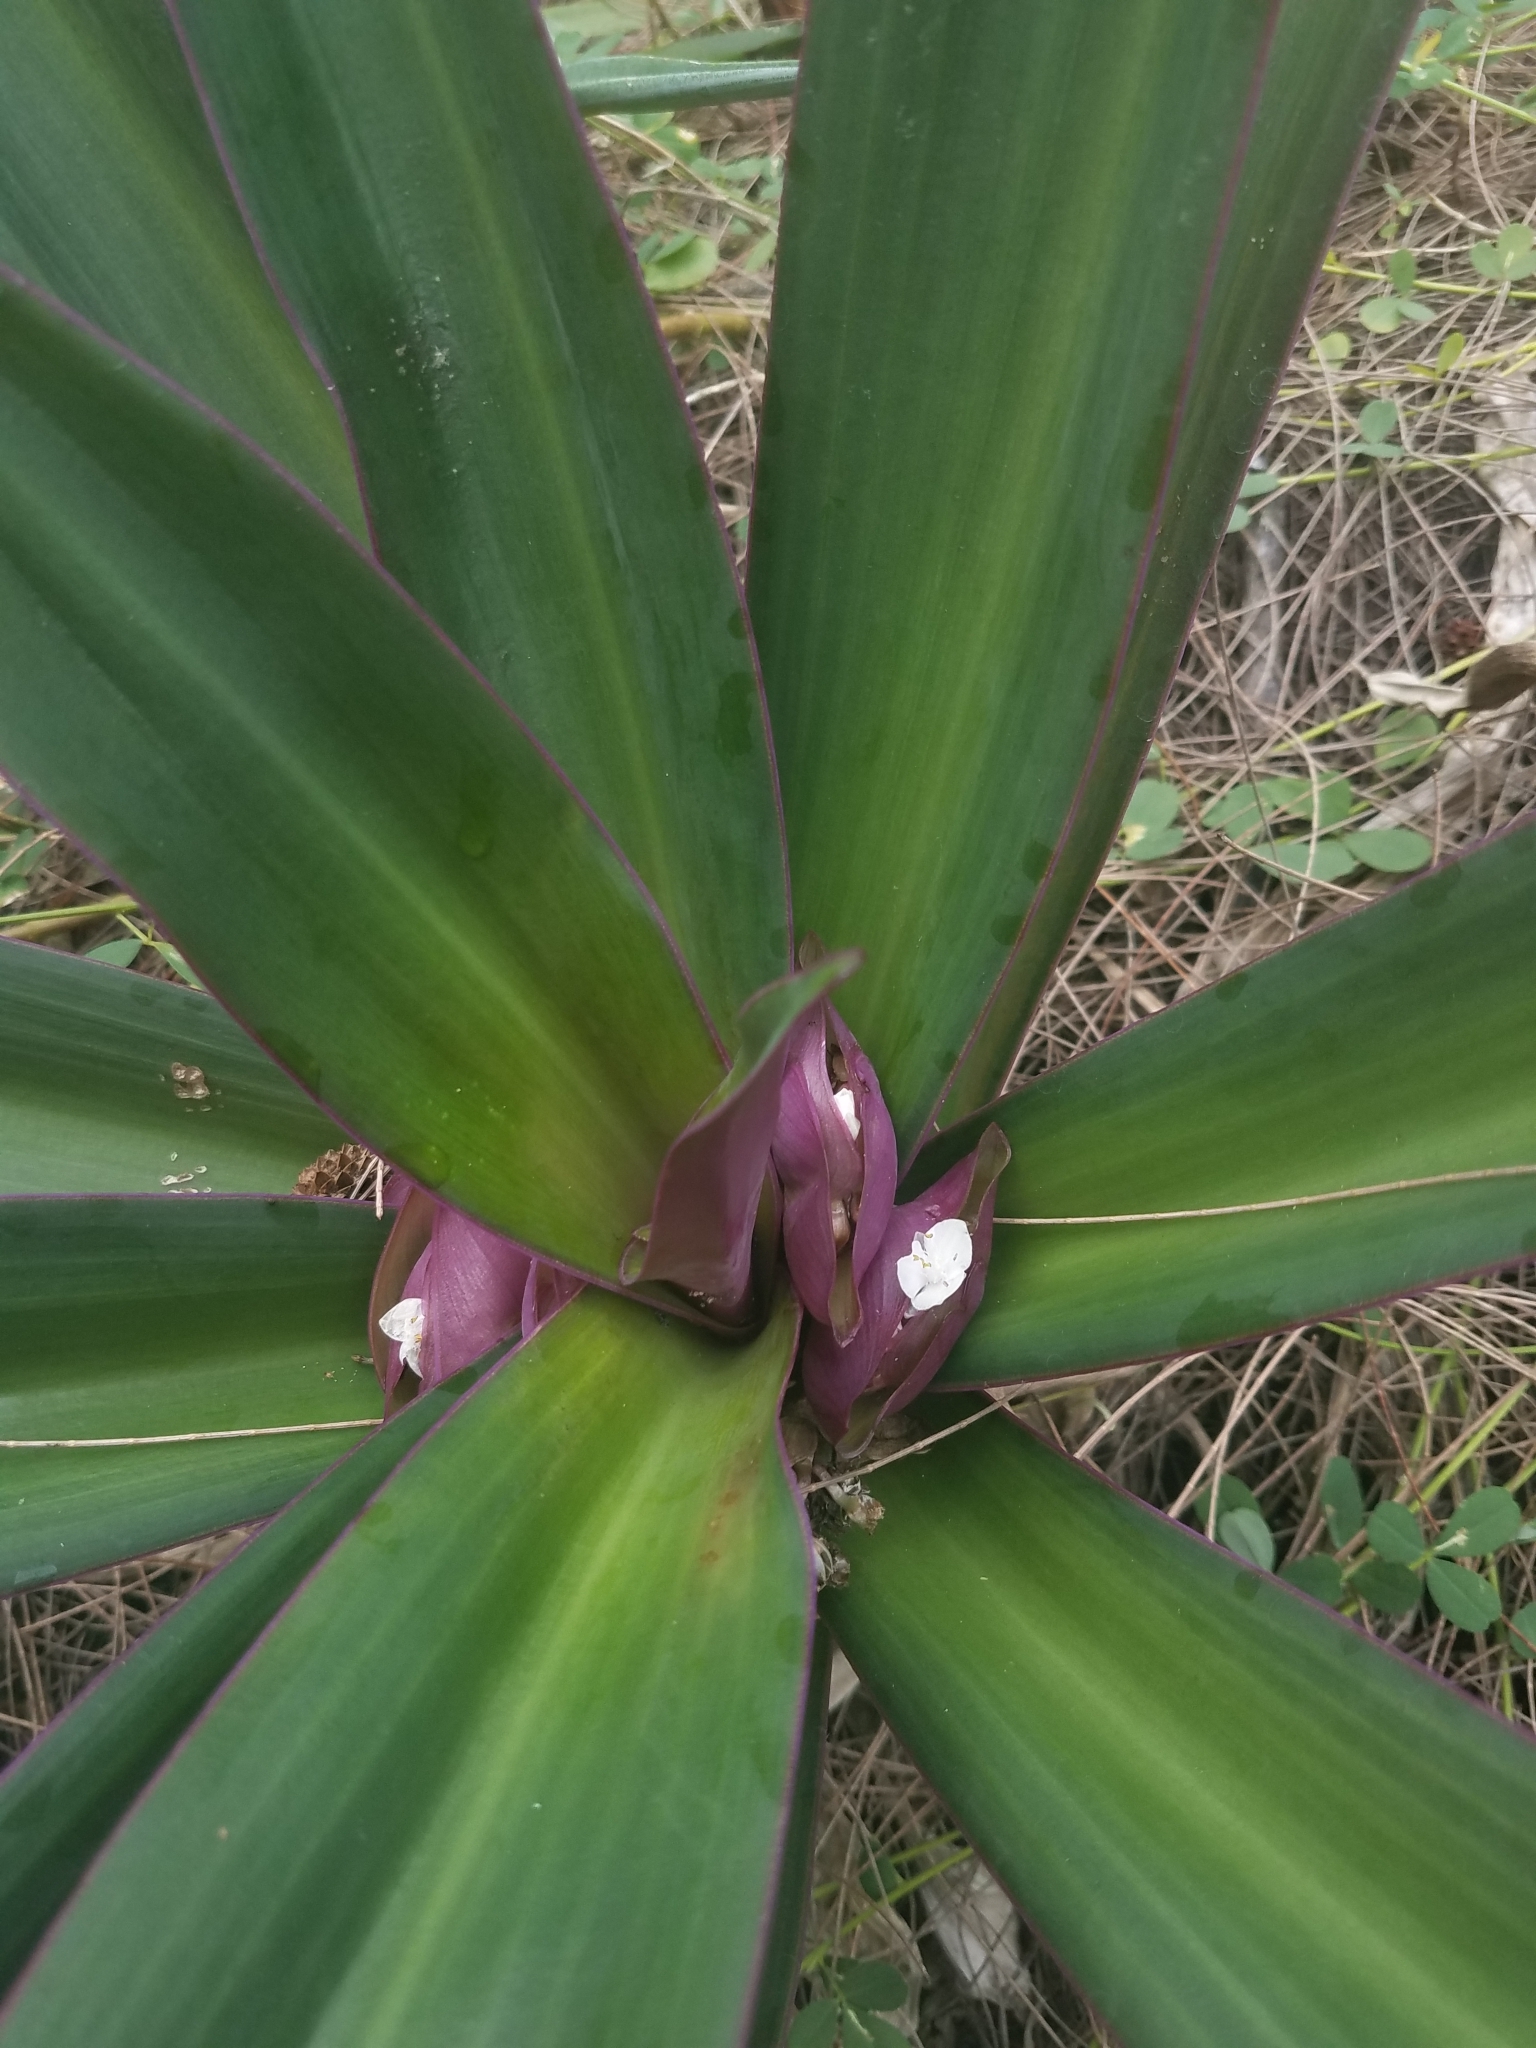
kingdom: Plantae
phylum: Tracheophyta
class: Liliopsida
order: Commelinales
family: Commelinaceae
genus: Tradescantia
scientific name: Tradescantia spathacea
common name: Boatlily
